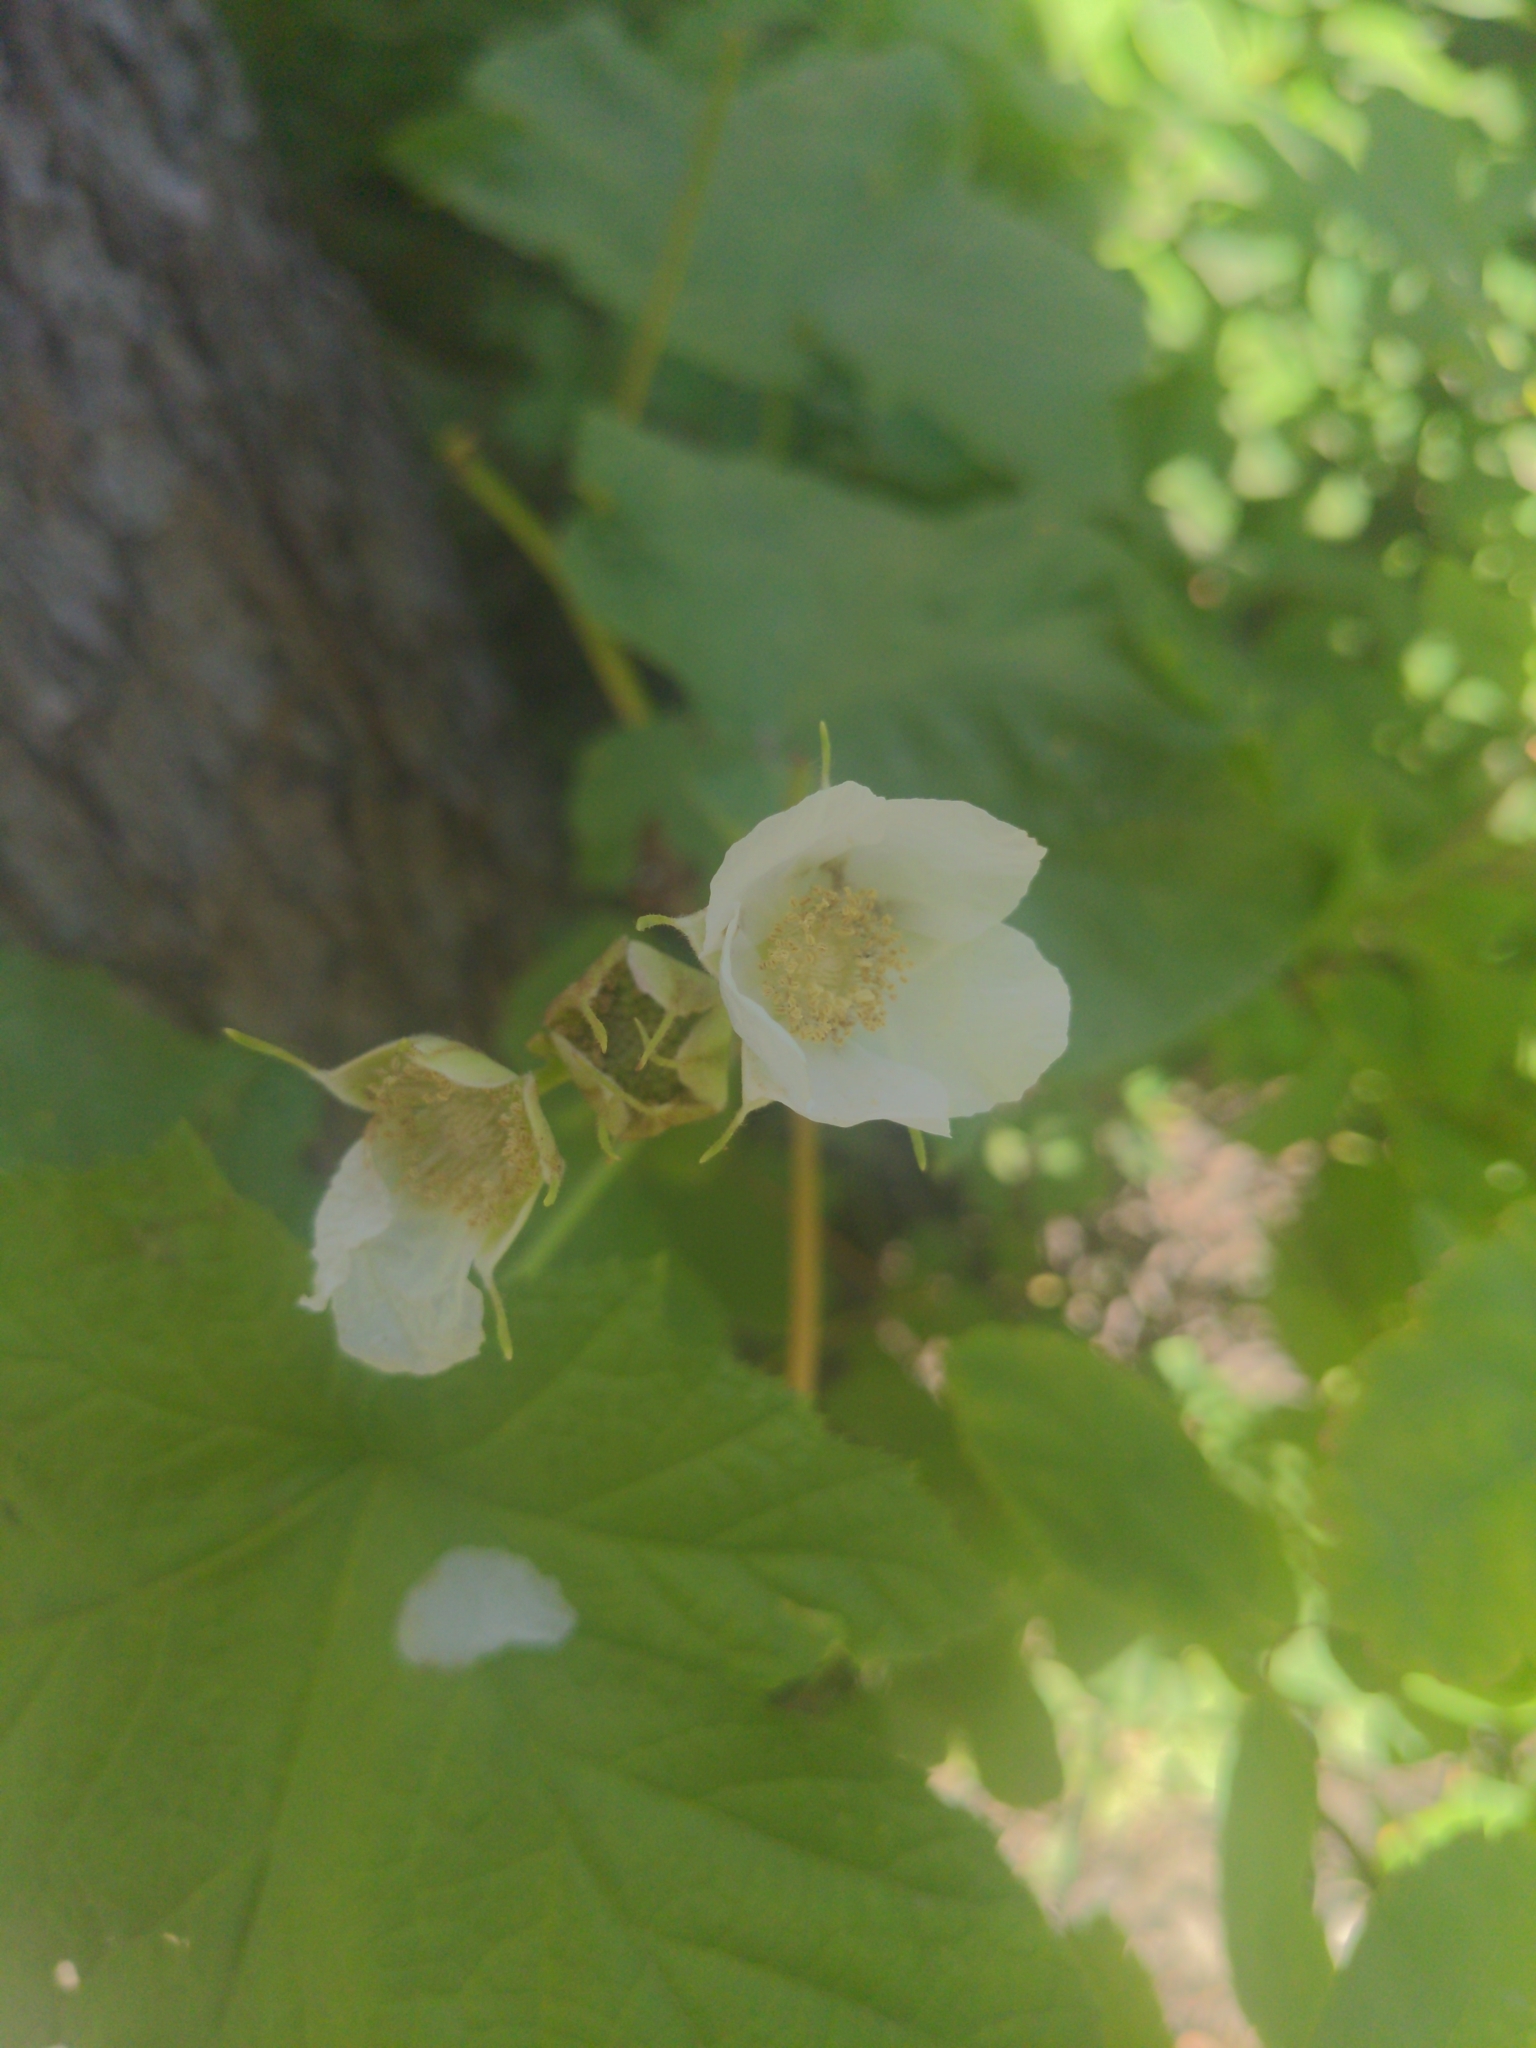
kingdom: Plantae
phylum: Tracheophyta
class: Magnoliopsida
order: Rosales
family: Rosaceae
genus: Rubus
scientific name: Rubus parviflorus
